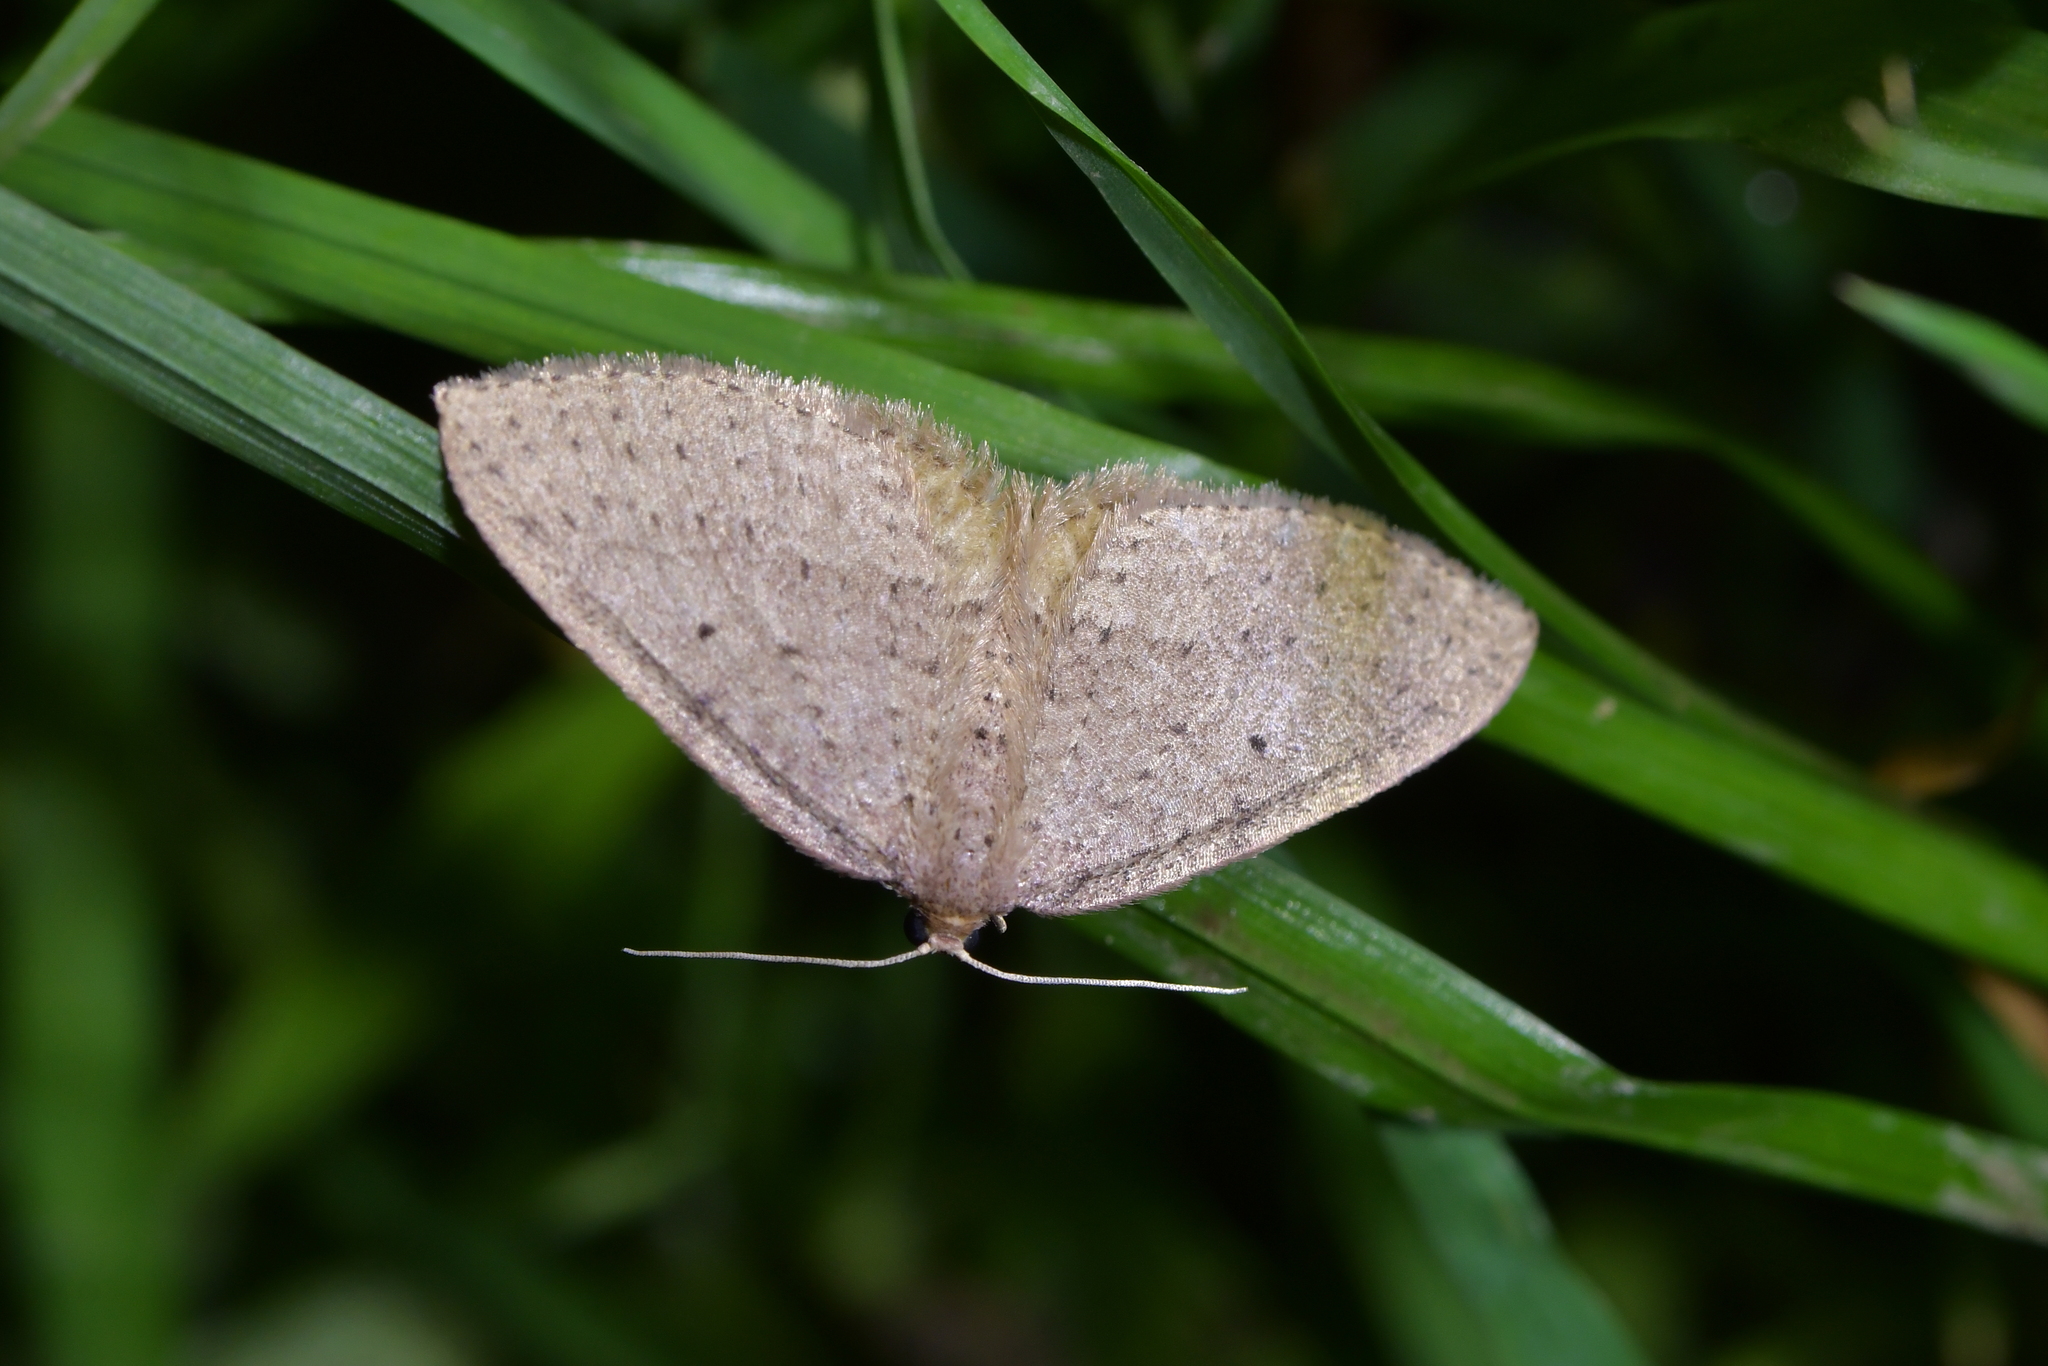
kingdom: Animalia
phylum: Arthropoda
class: Insecta
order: Lepidoptera
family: Geometridae
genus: Poecilasthena
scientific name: Poecilasthena schistaria
